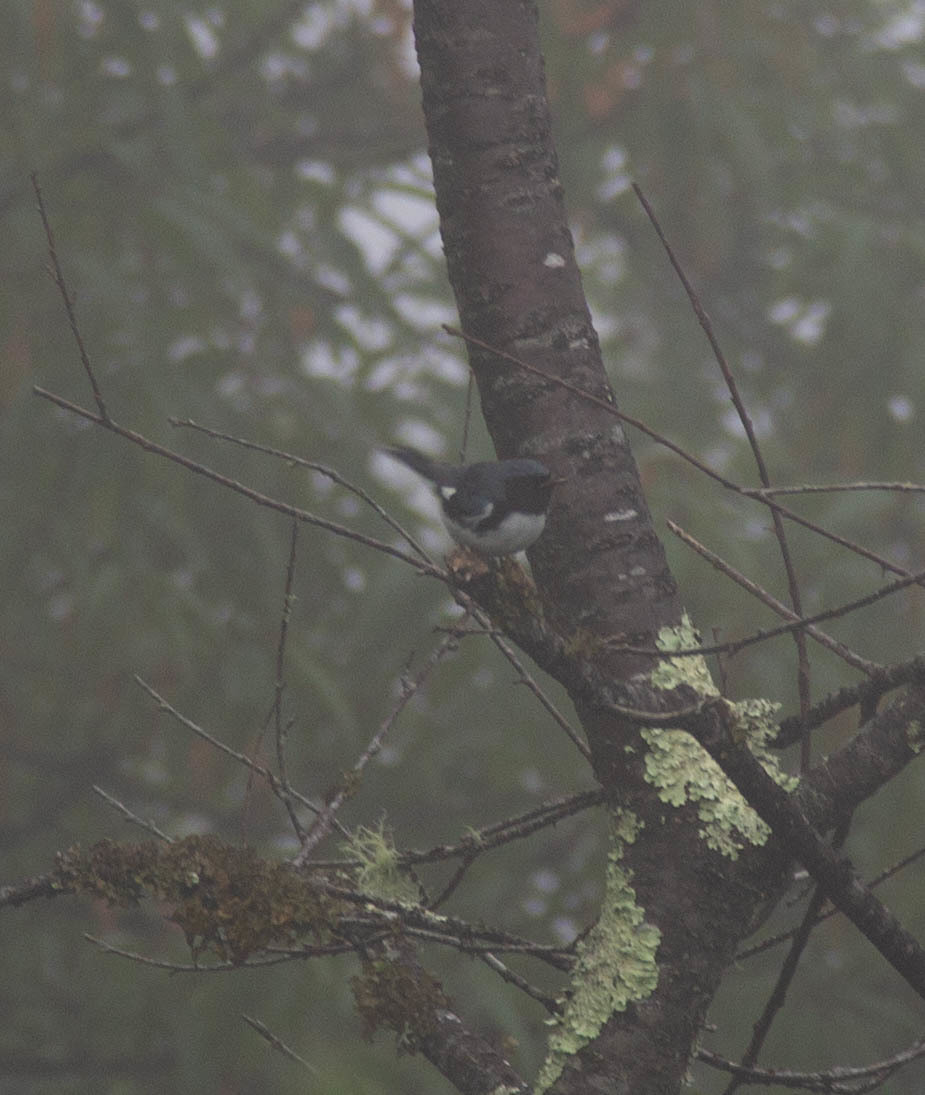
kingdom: Animalia
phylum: Chordata
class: Aves
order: Passeriformes
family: Parulidae
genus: Setophaga
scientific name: Setophaga caerulescens
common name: Black-throated blue warbler
